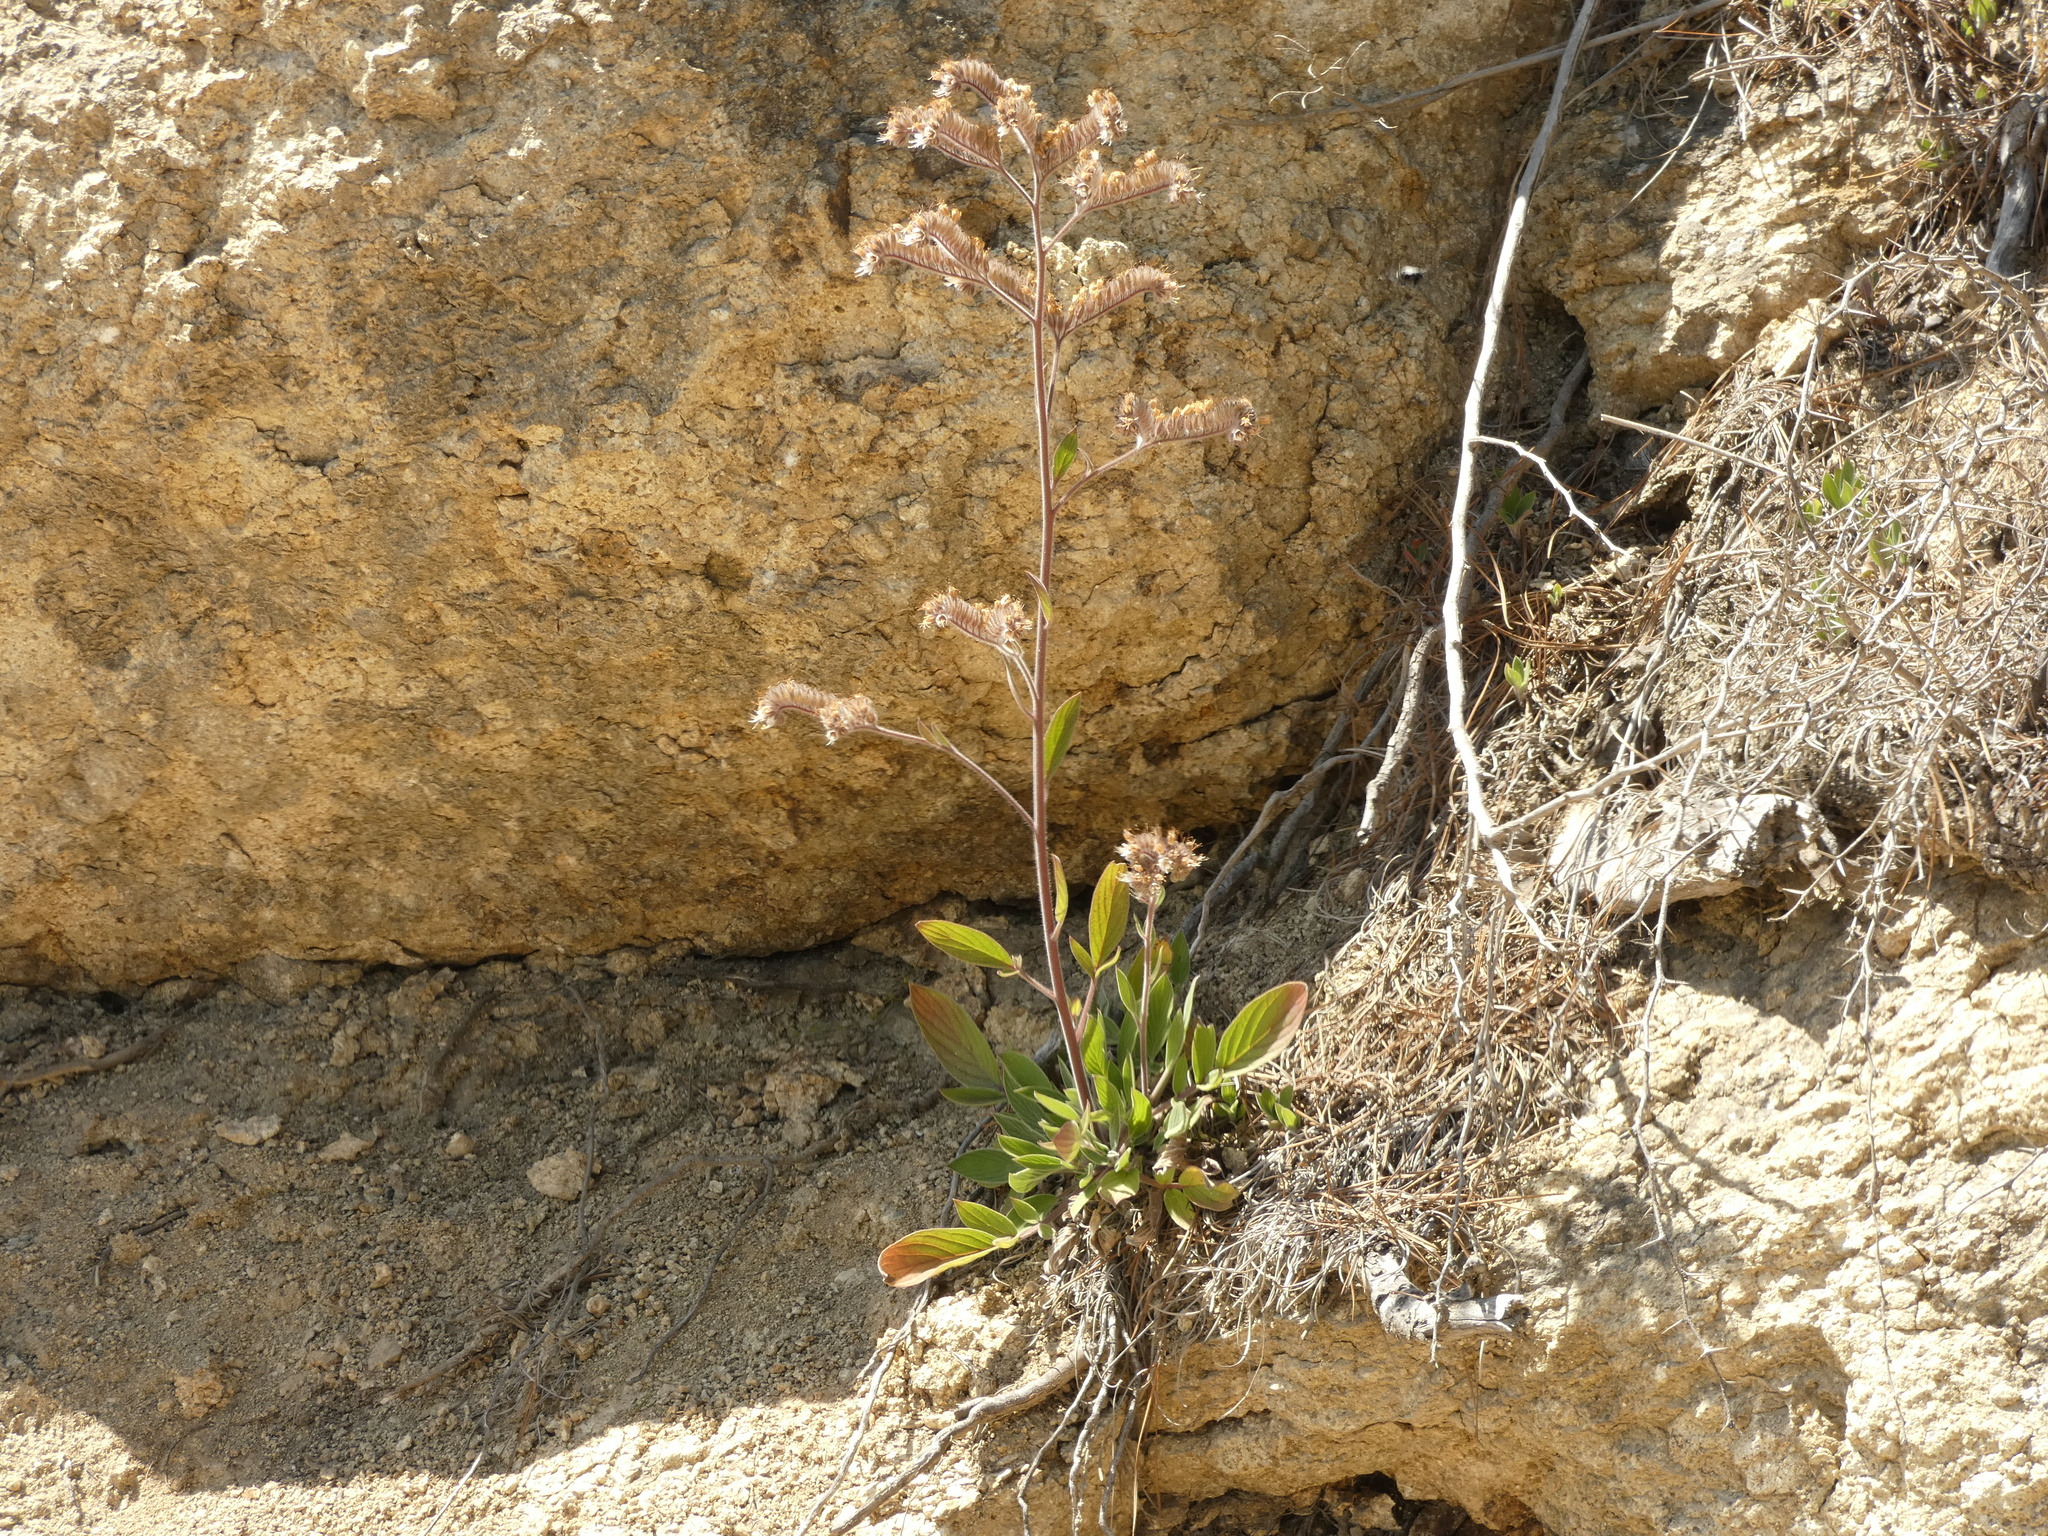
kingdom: Plantae
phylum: Tracheophyta
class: Magnoliopsida
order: Boraginales
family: Hydrophyllaceae
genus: Phacelia
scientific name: Phacelia secunda
